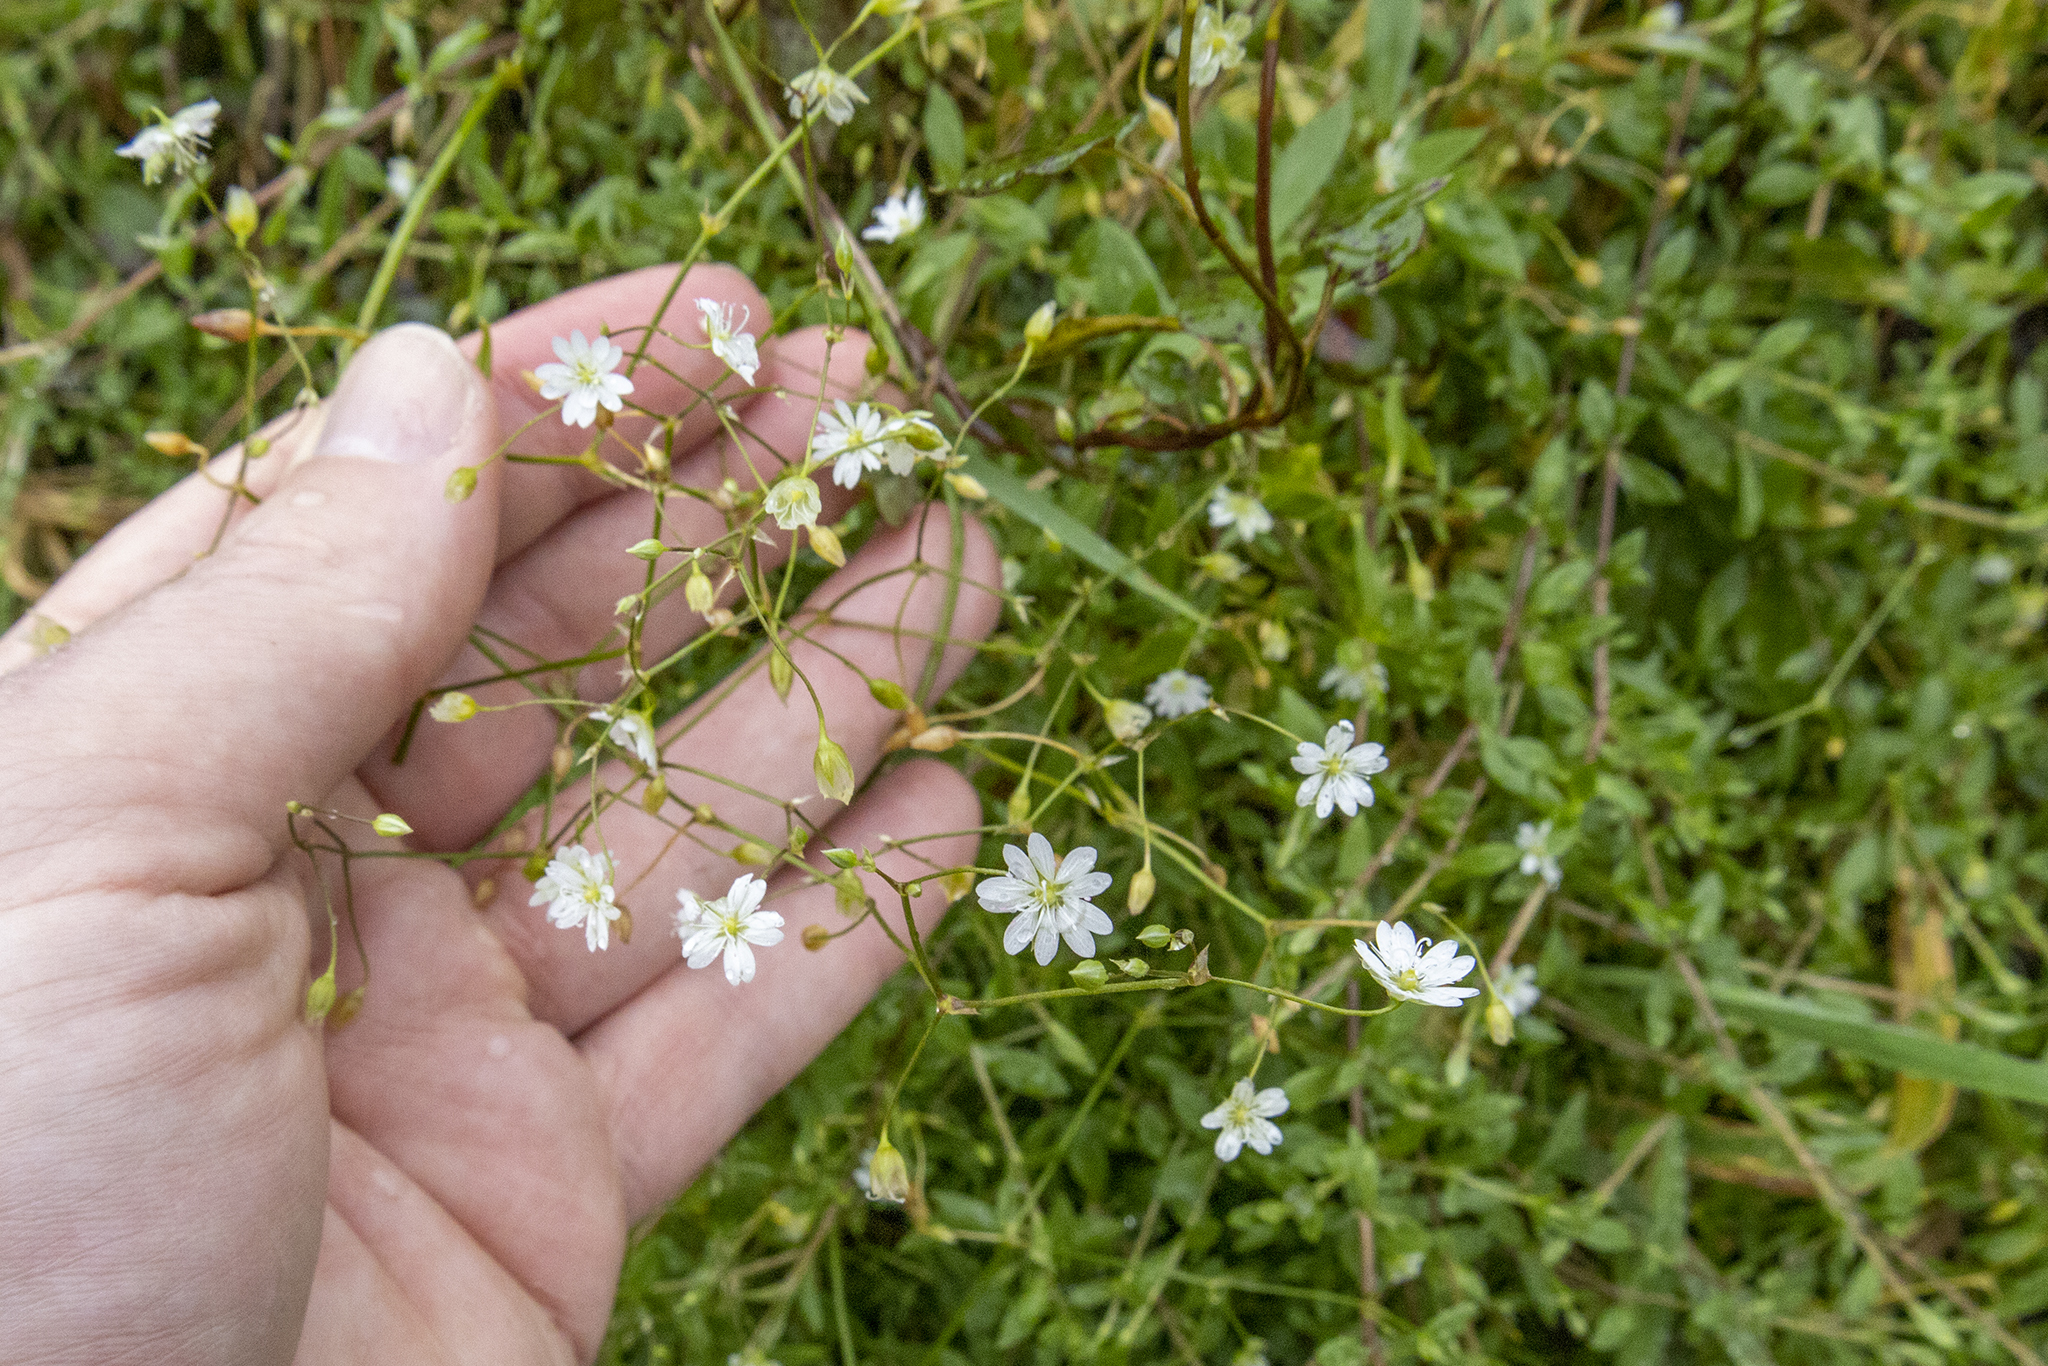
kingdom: Plantae
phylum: Tracheophyta
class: Magnoliopsida
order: Caryophyllales
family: Caryophyllaceae
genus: Stellaria
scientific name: Stellaria graminea
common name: Grass-like starwort
